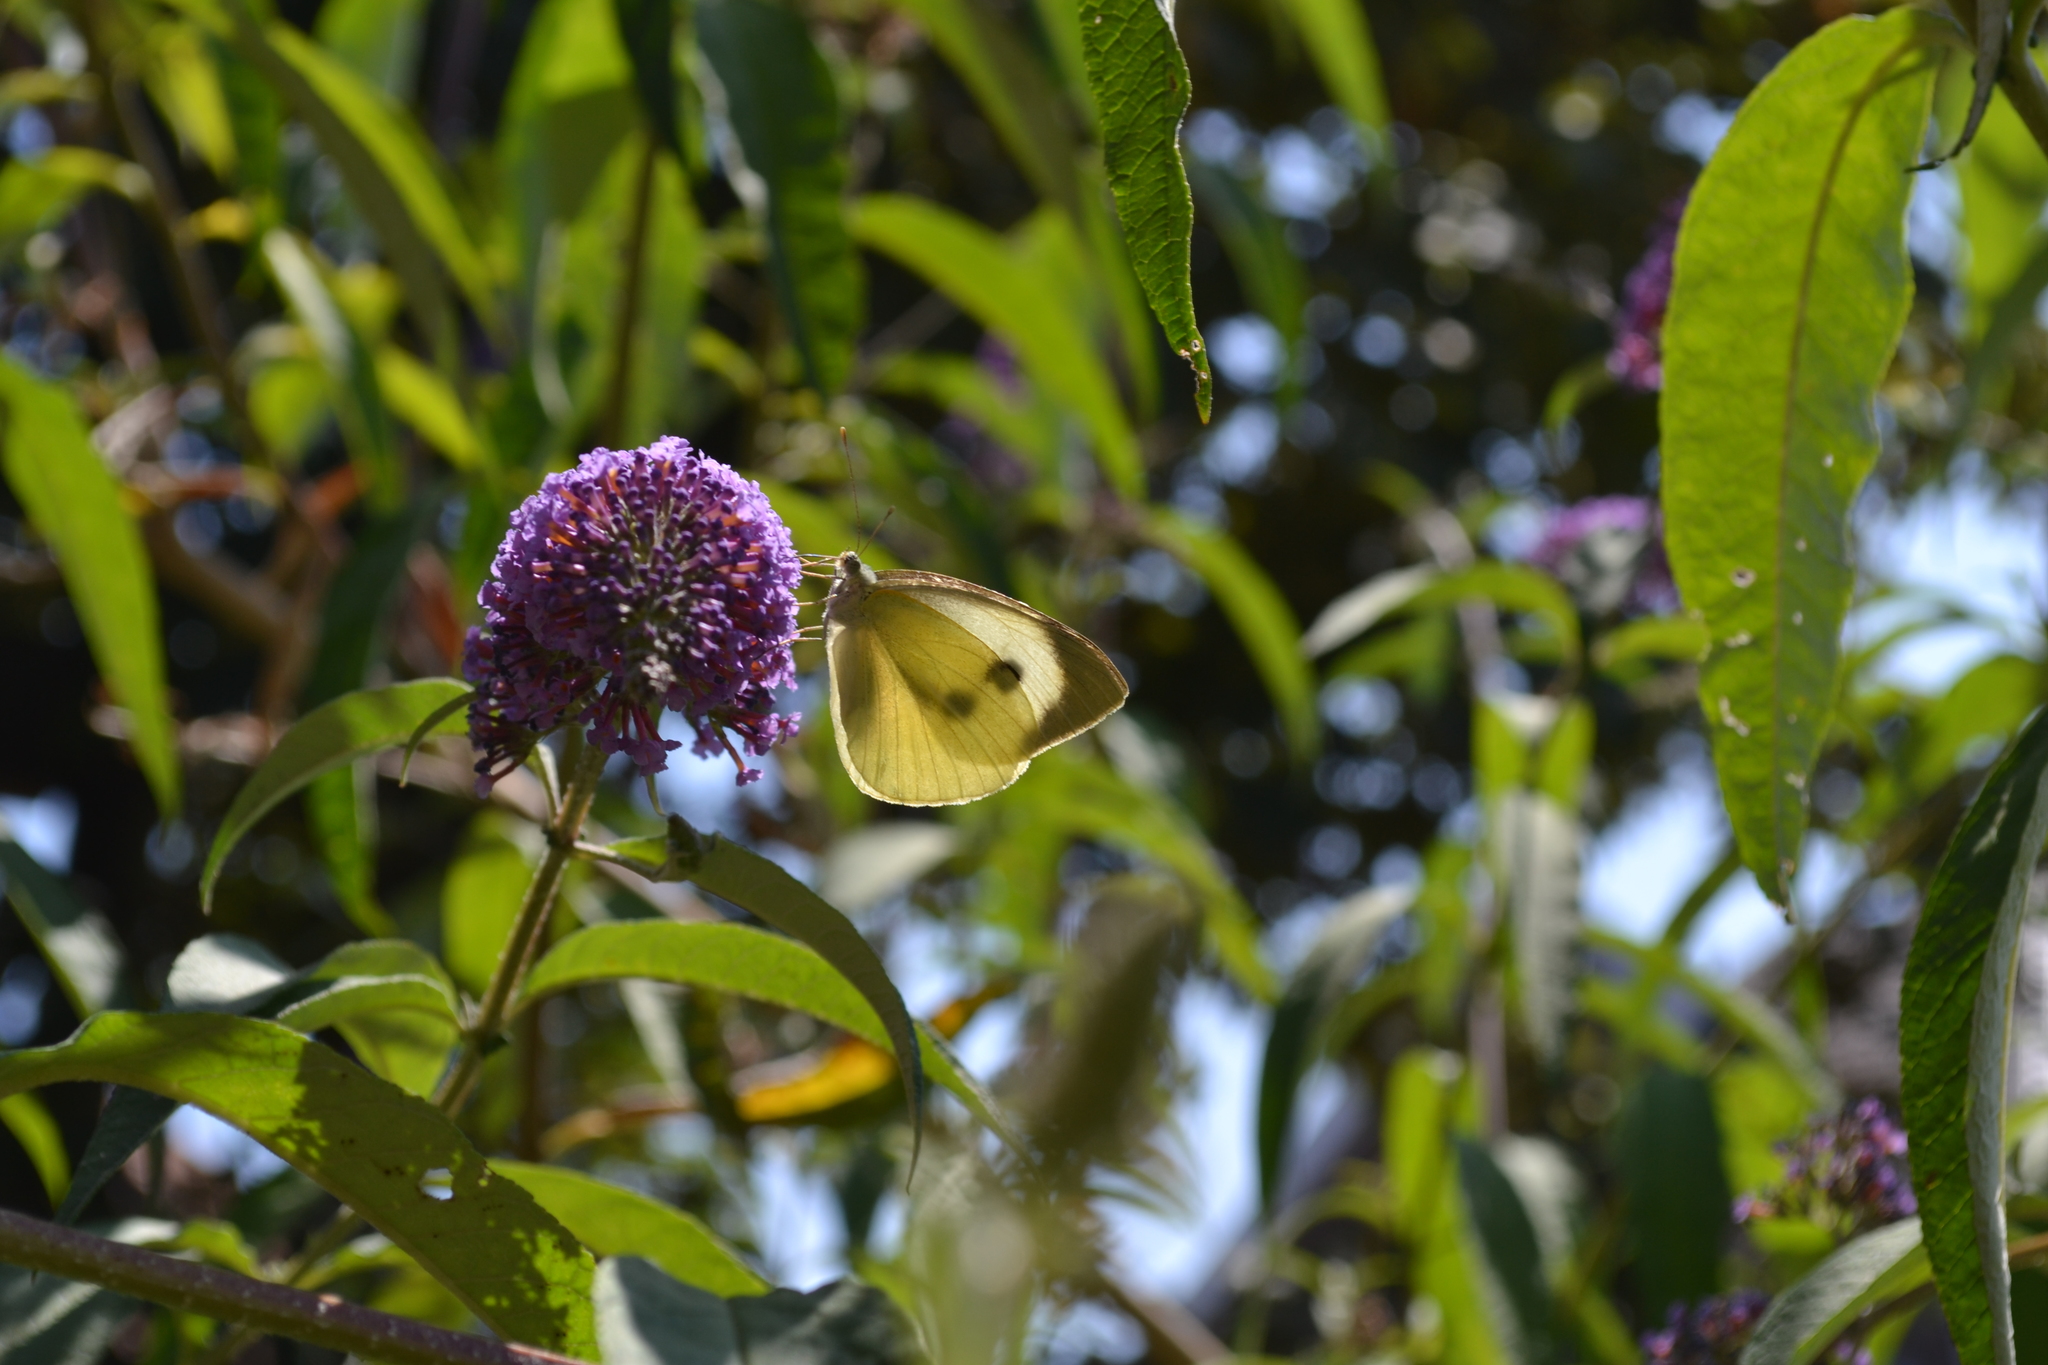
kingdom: Animalia
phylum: Arthropoda
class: Insecta
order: Lepidoptera
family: Pieridae
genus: Pieris
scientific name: Pieris brassicae
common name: Large white
